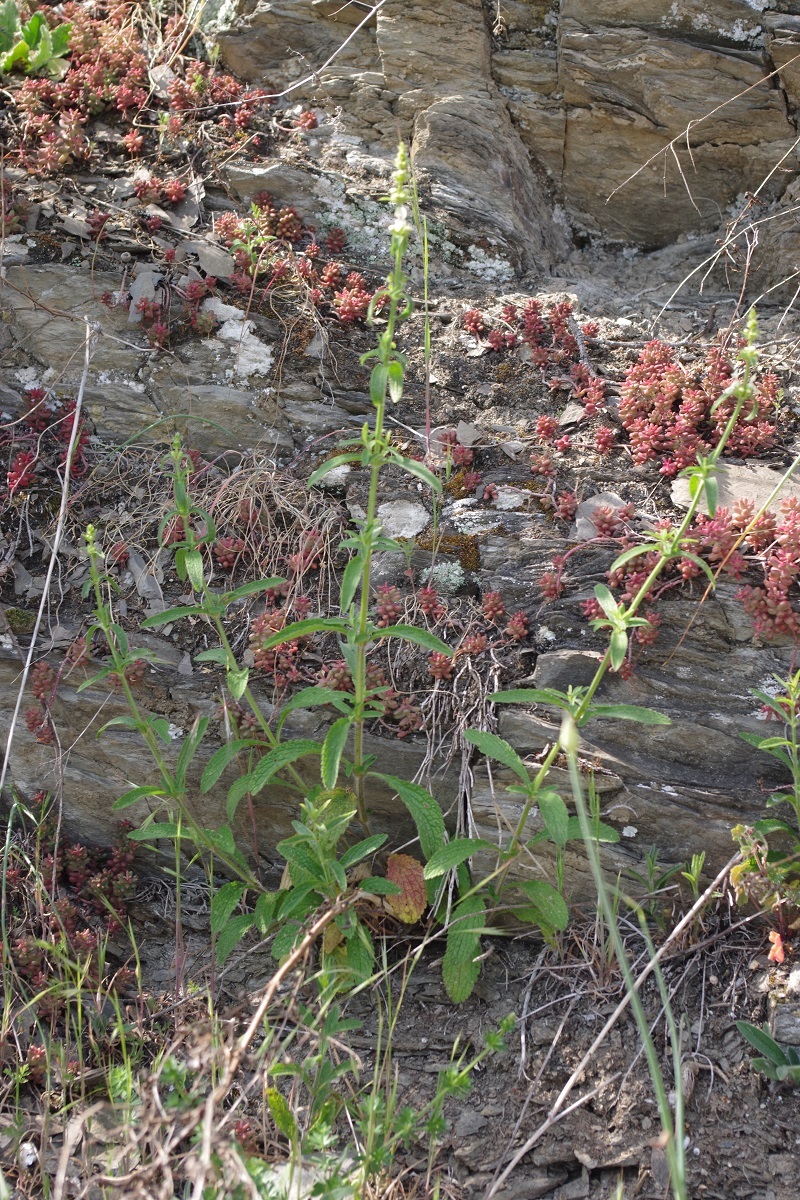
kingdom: Plantae
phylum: Tracheophyta
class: Magnoliopsida
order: Lamiales
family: Lamiaceae
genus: Stachys
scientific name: Stachys recta
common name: Perennial yellow-woundwort
